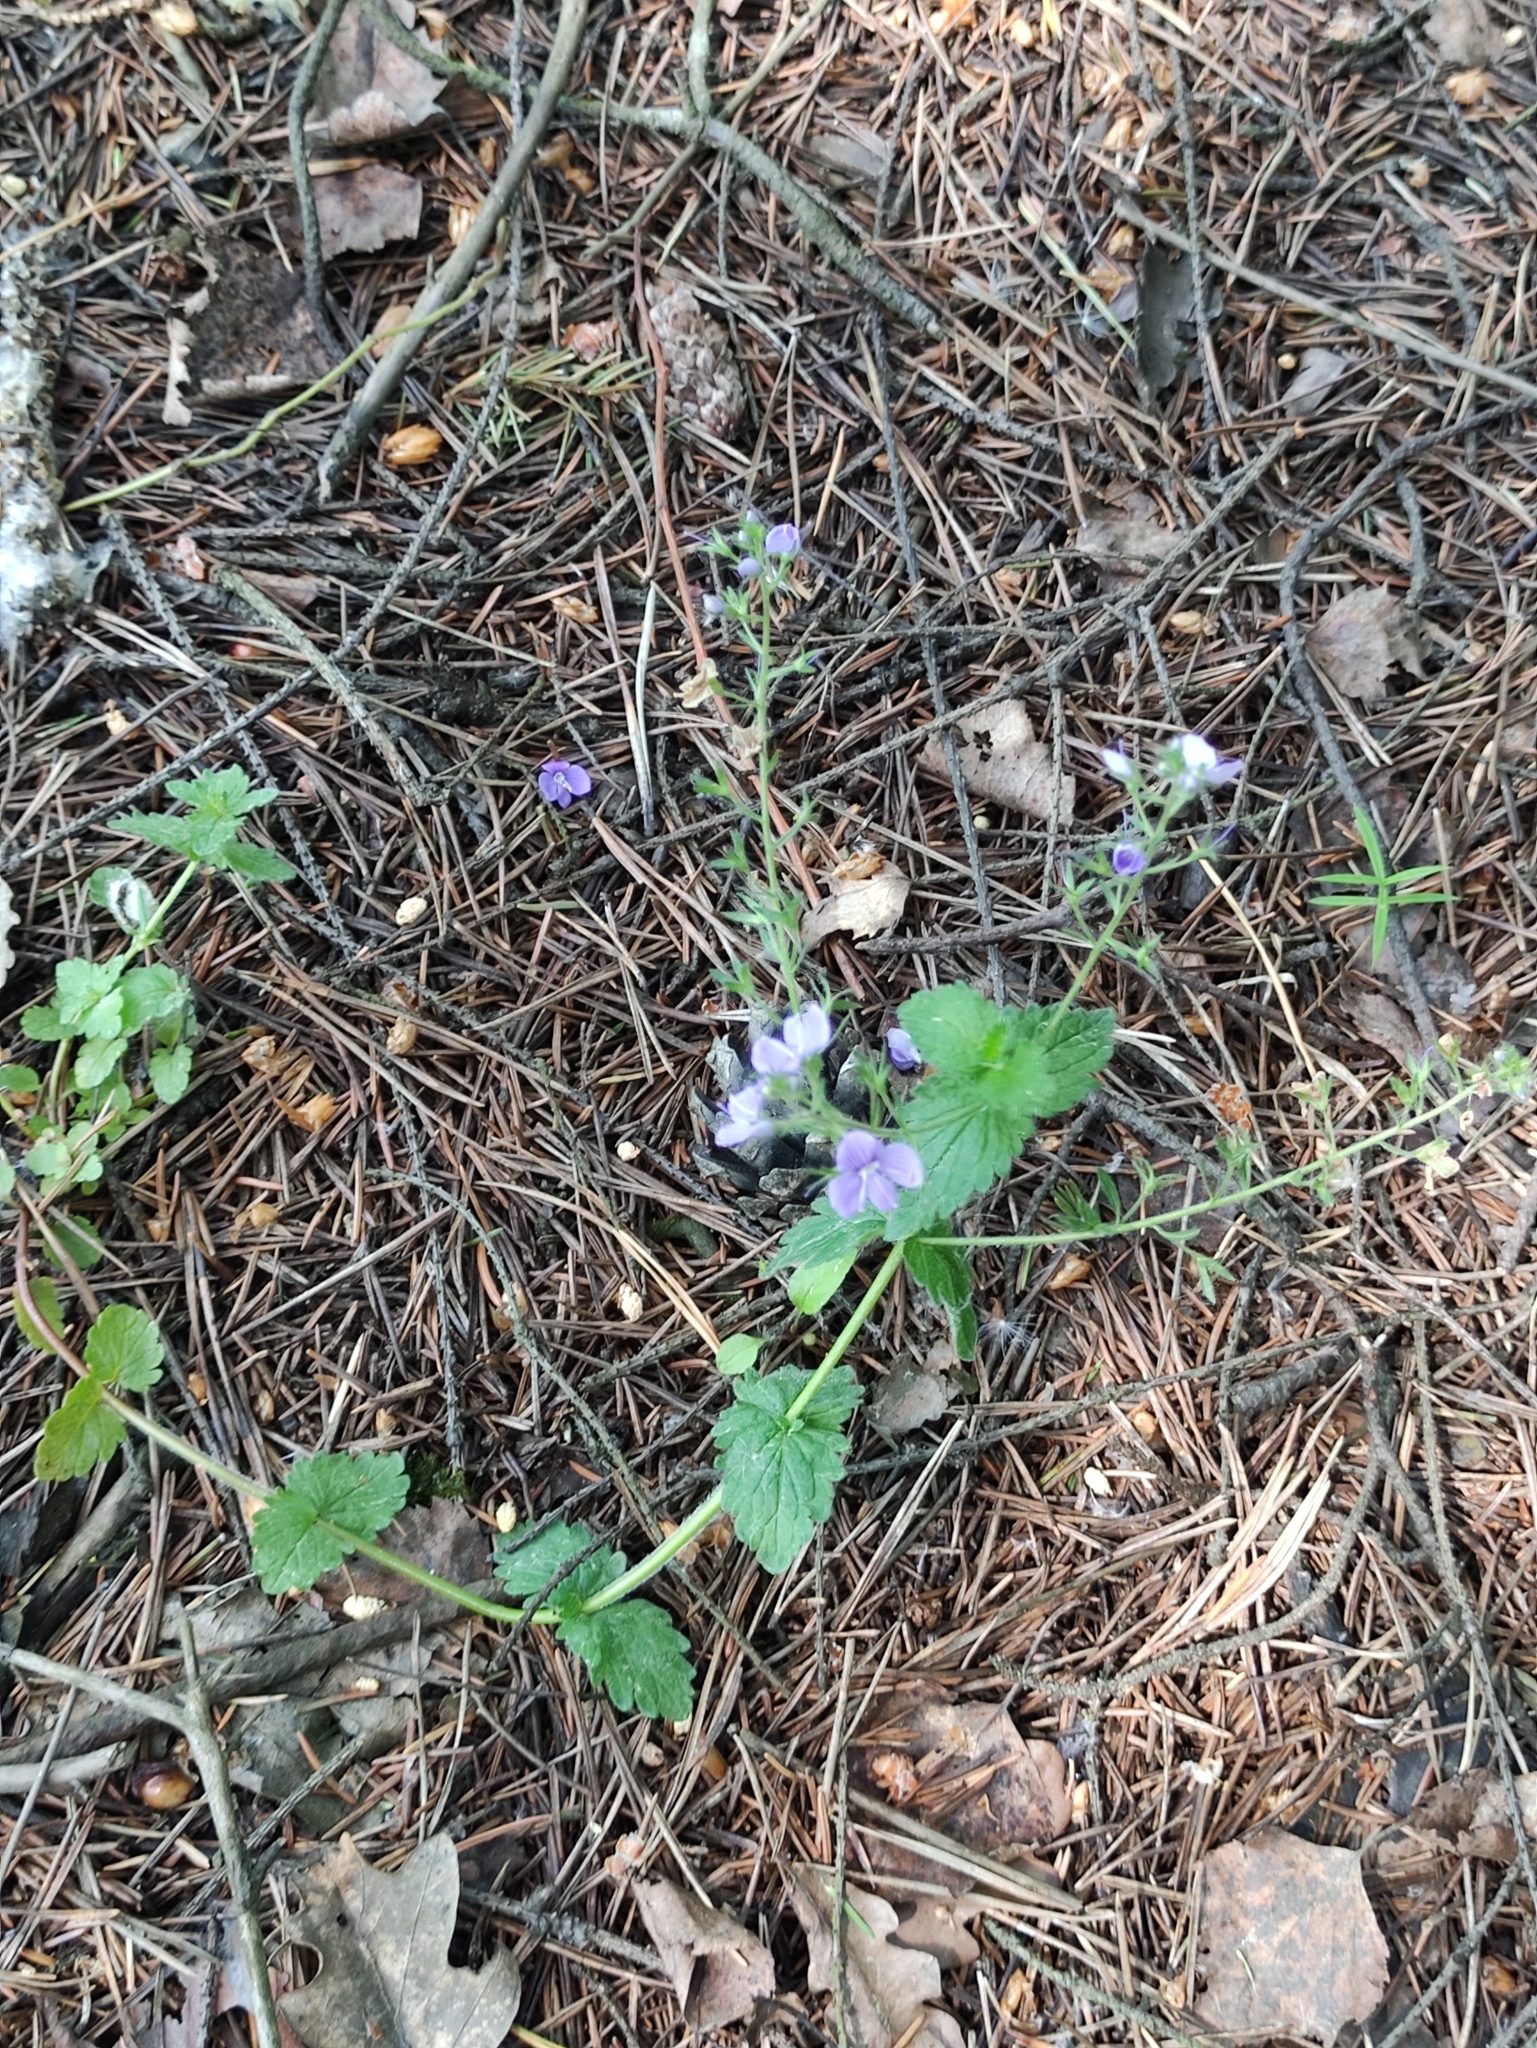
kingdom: Plantae
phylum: Tracheophyta
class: Magnoliopsida
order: Lamiales
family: Plantaginaceae
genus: Veronica
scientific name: Veronica chamaedrys
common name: Germander speedwell
